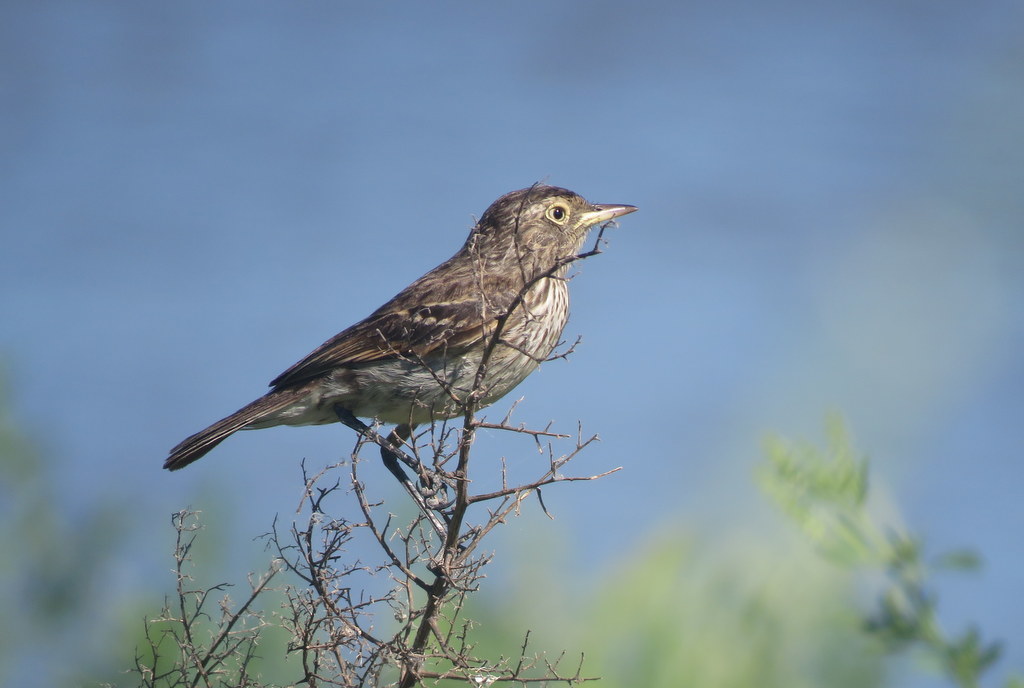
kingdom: Animalia
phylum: Chordata
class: Aves
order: Passeriformes
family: Tyrannidae
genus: Hymenops
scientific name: Hymenops perspicillatus
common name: Spectacled tyrant
